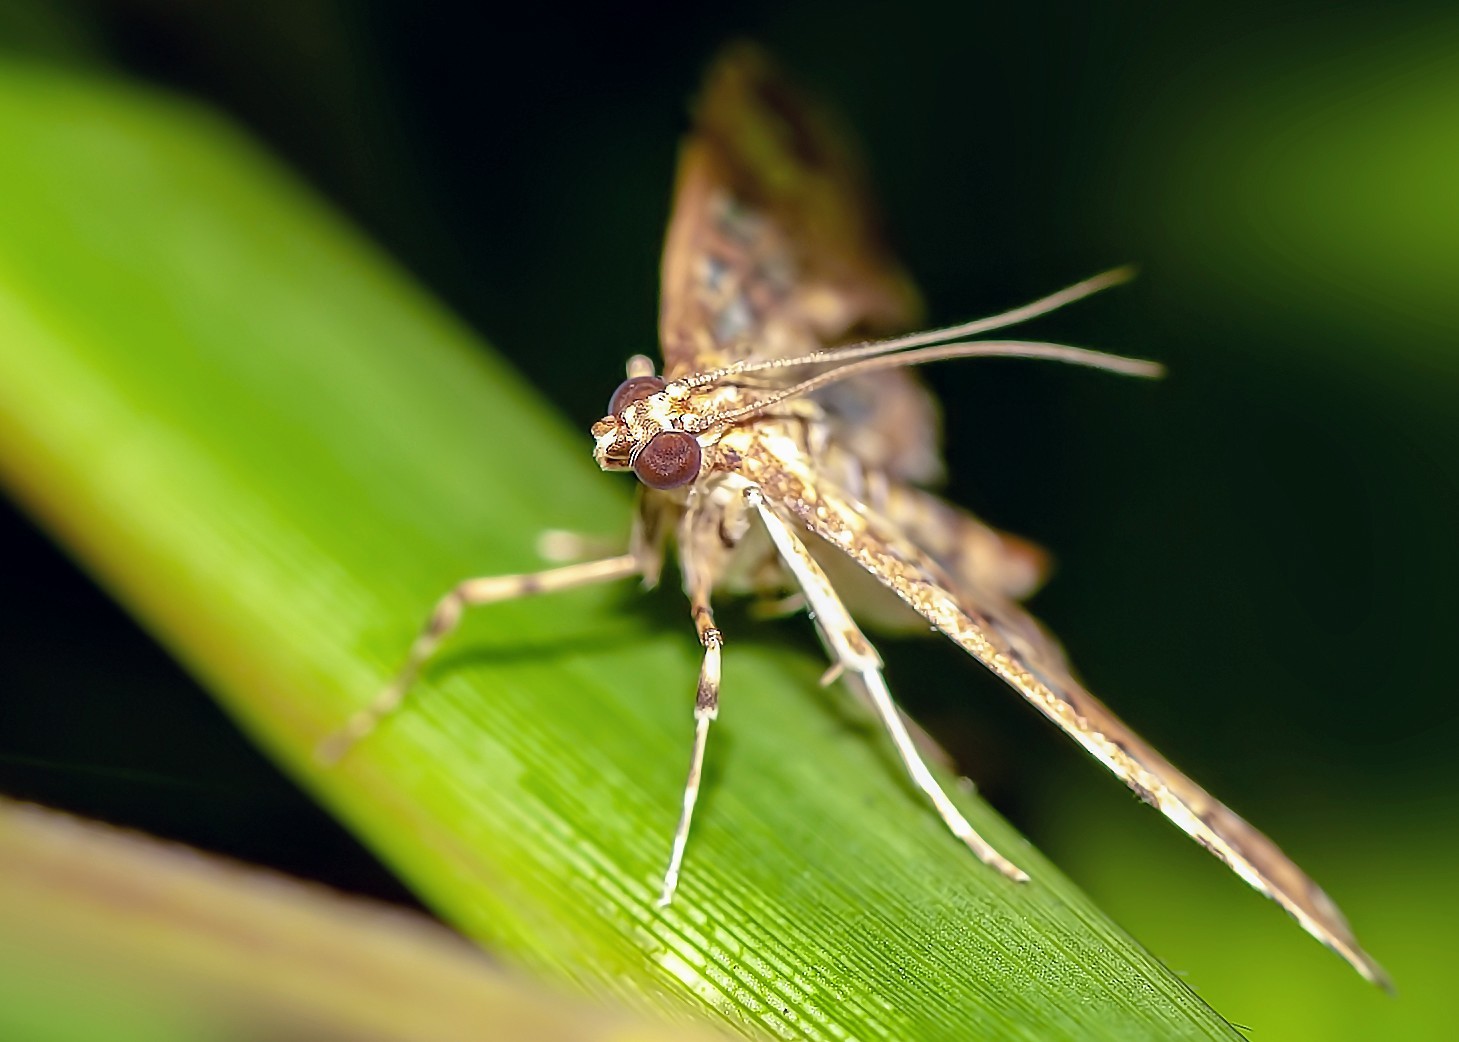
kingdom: Animalia
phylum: Arthropoda
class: Insecta
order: Lepidoptera
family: Crambidae
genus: Samea
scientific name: Samea ecclesialis
